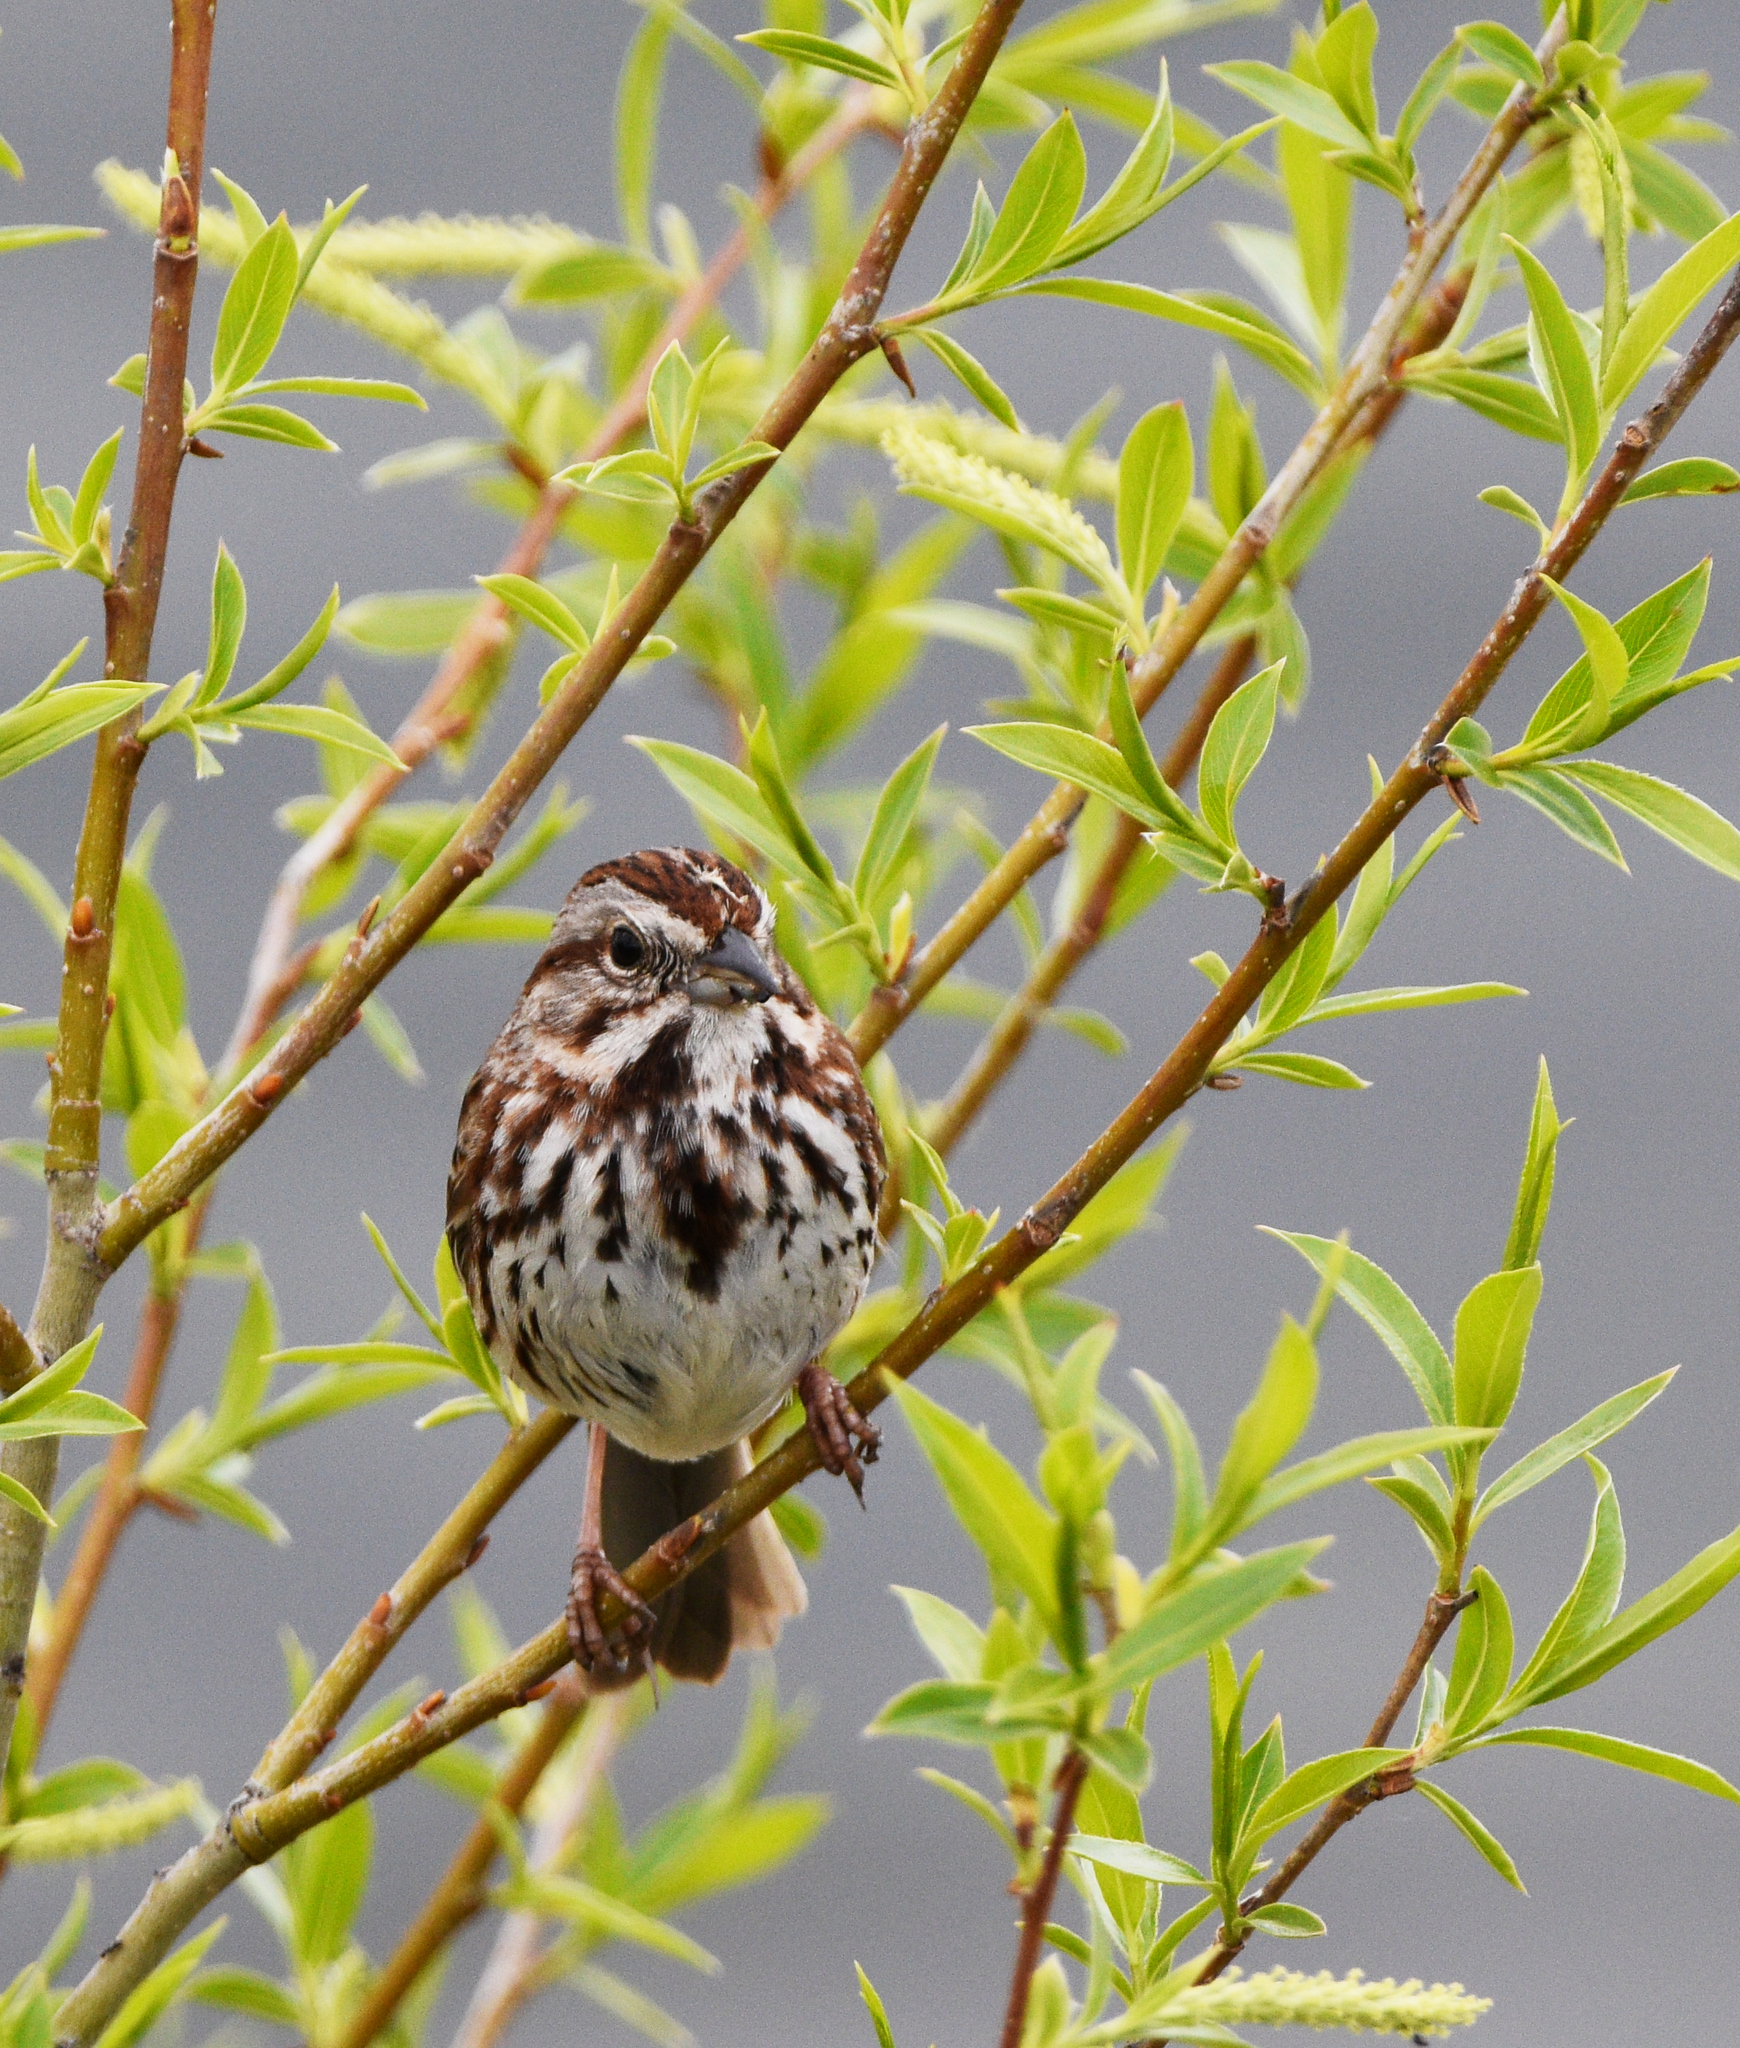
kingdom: Animalia
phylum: Chordata
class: Aves
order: Passeriformes
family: Passerellidae
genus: Melospiza
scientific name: Melospiza melodia
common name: Song sparrow
